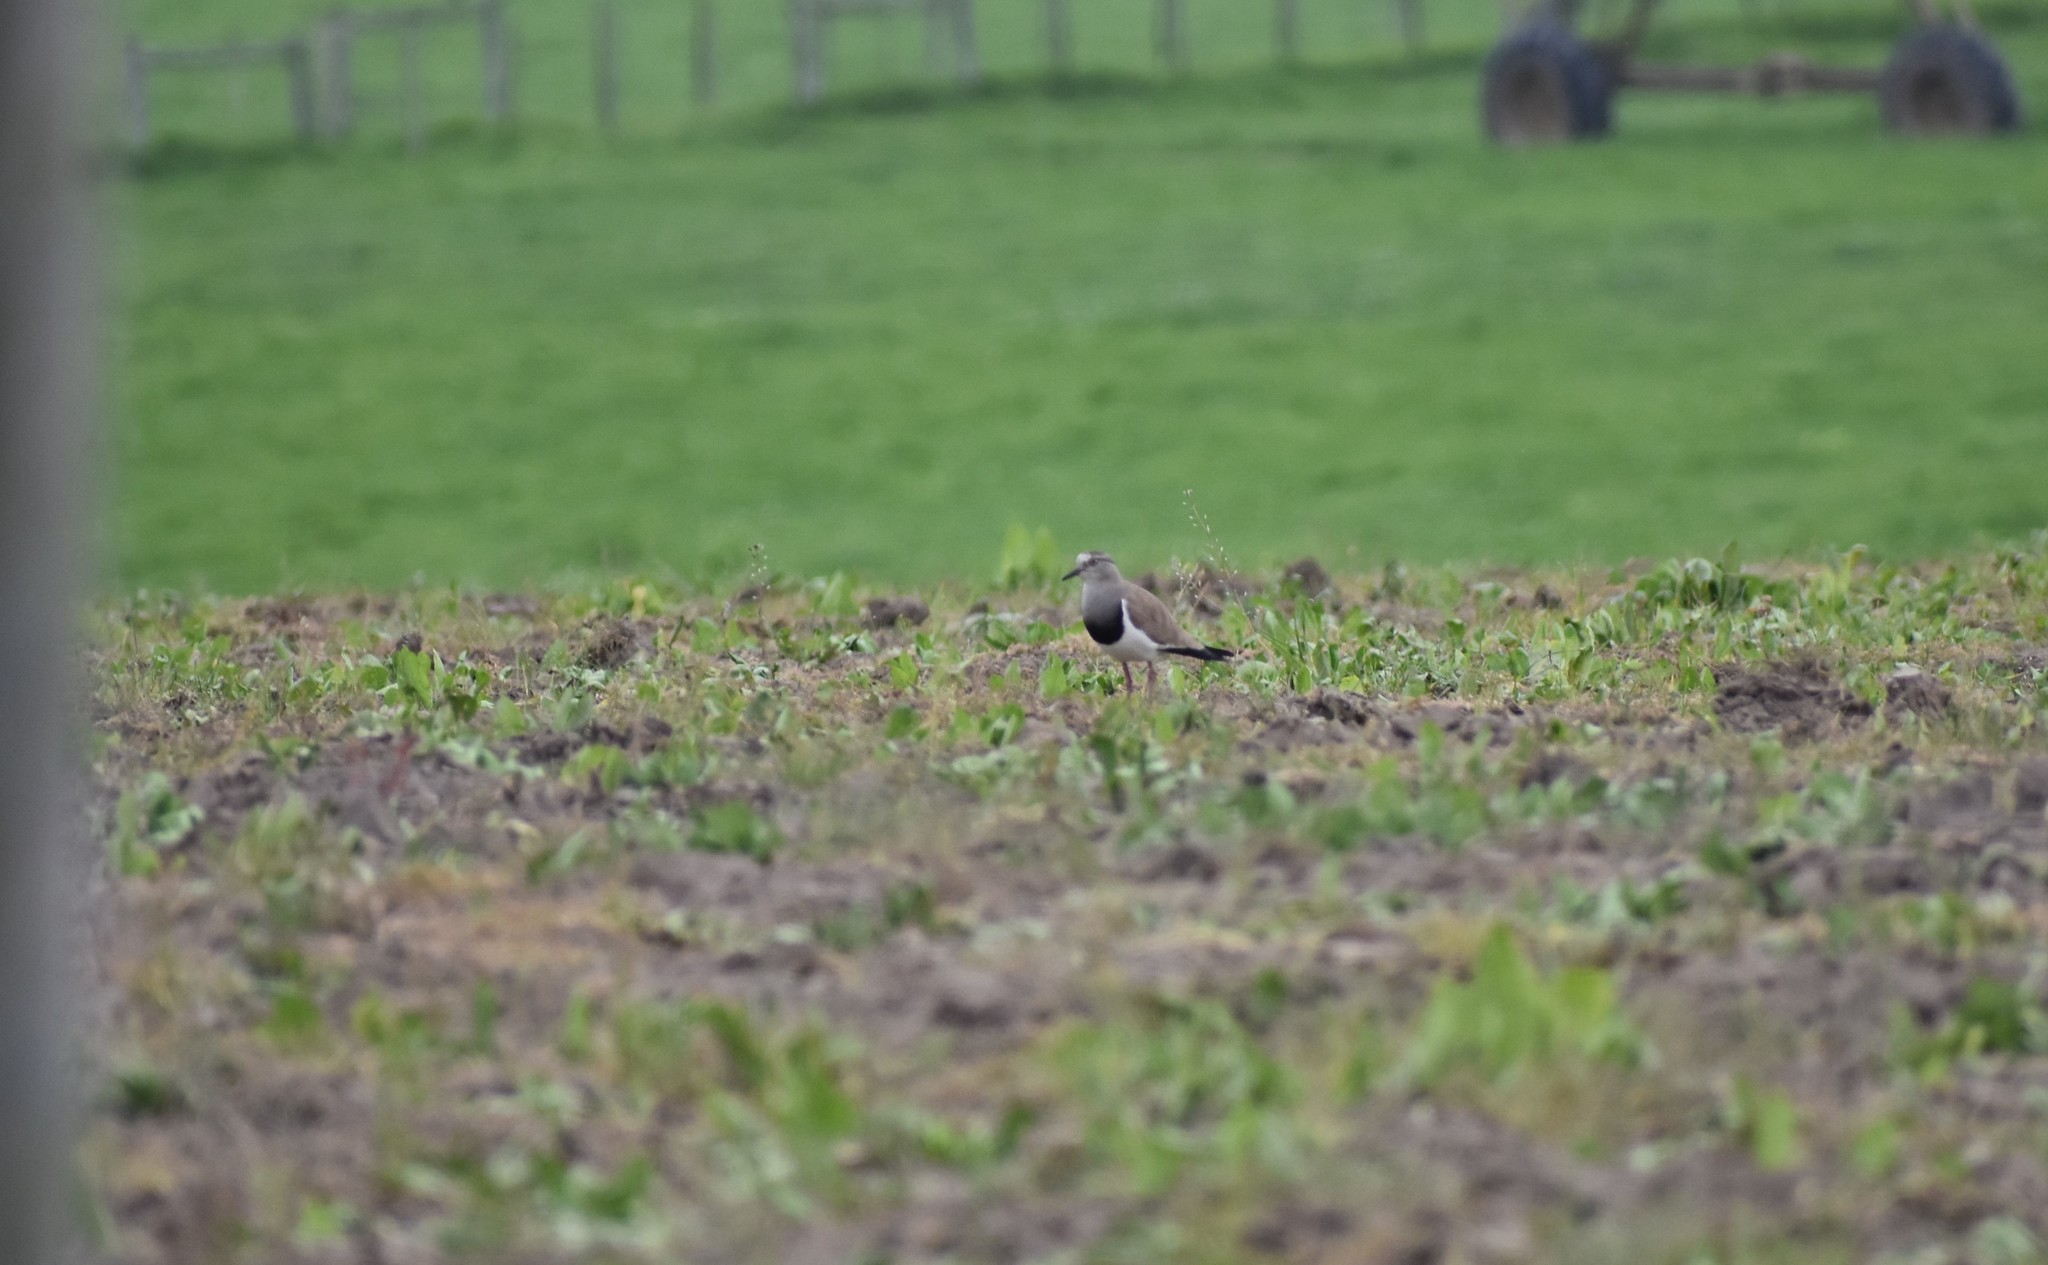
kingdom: Animalia
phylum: Chordata
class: Aves
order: Charadriiformes
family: Charadriidae
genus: Vanellus
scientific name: Vanellus melanopterus
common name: Black-winged lapwing
